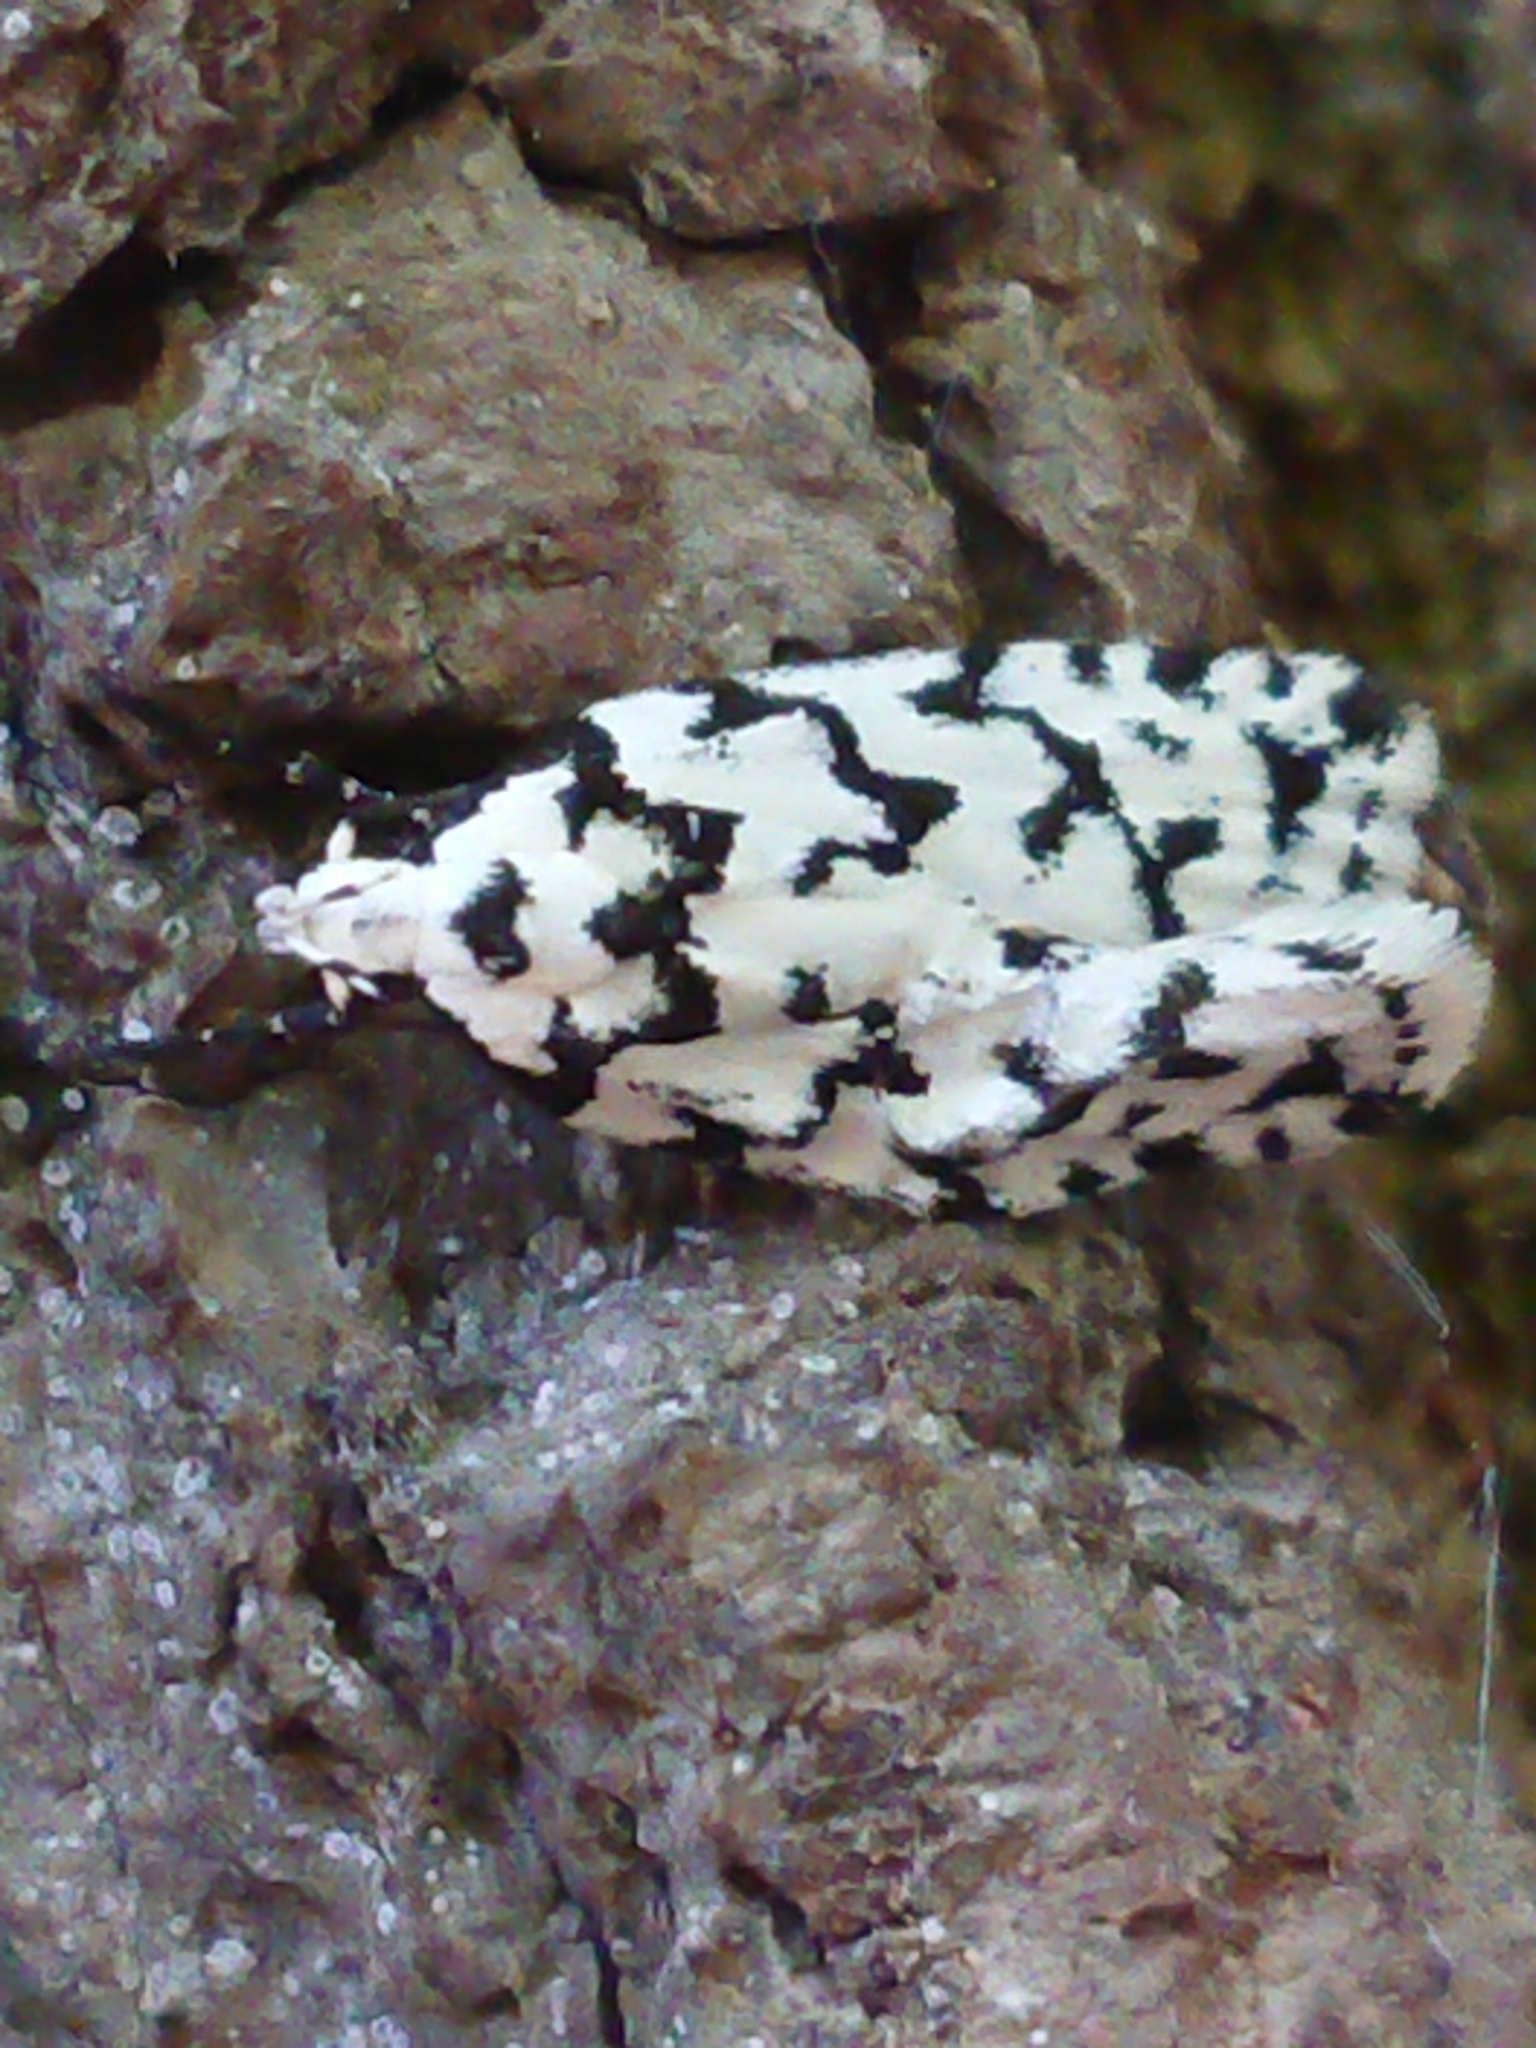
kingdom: Animalia
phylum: Arthropoda
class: Insecta
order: Lepidoptera
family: Oecophoridae
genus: Izatha
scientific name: Izatha katadiktya
